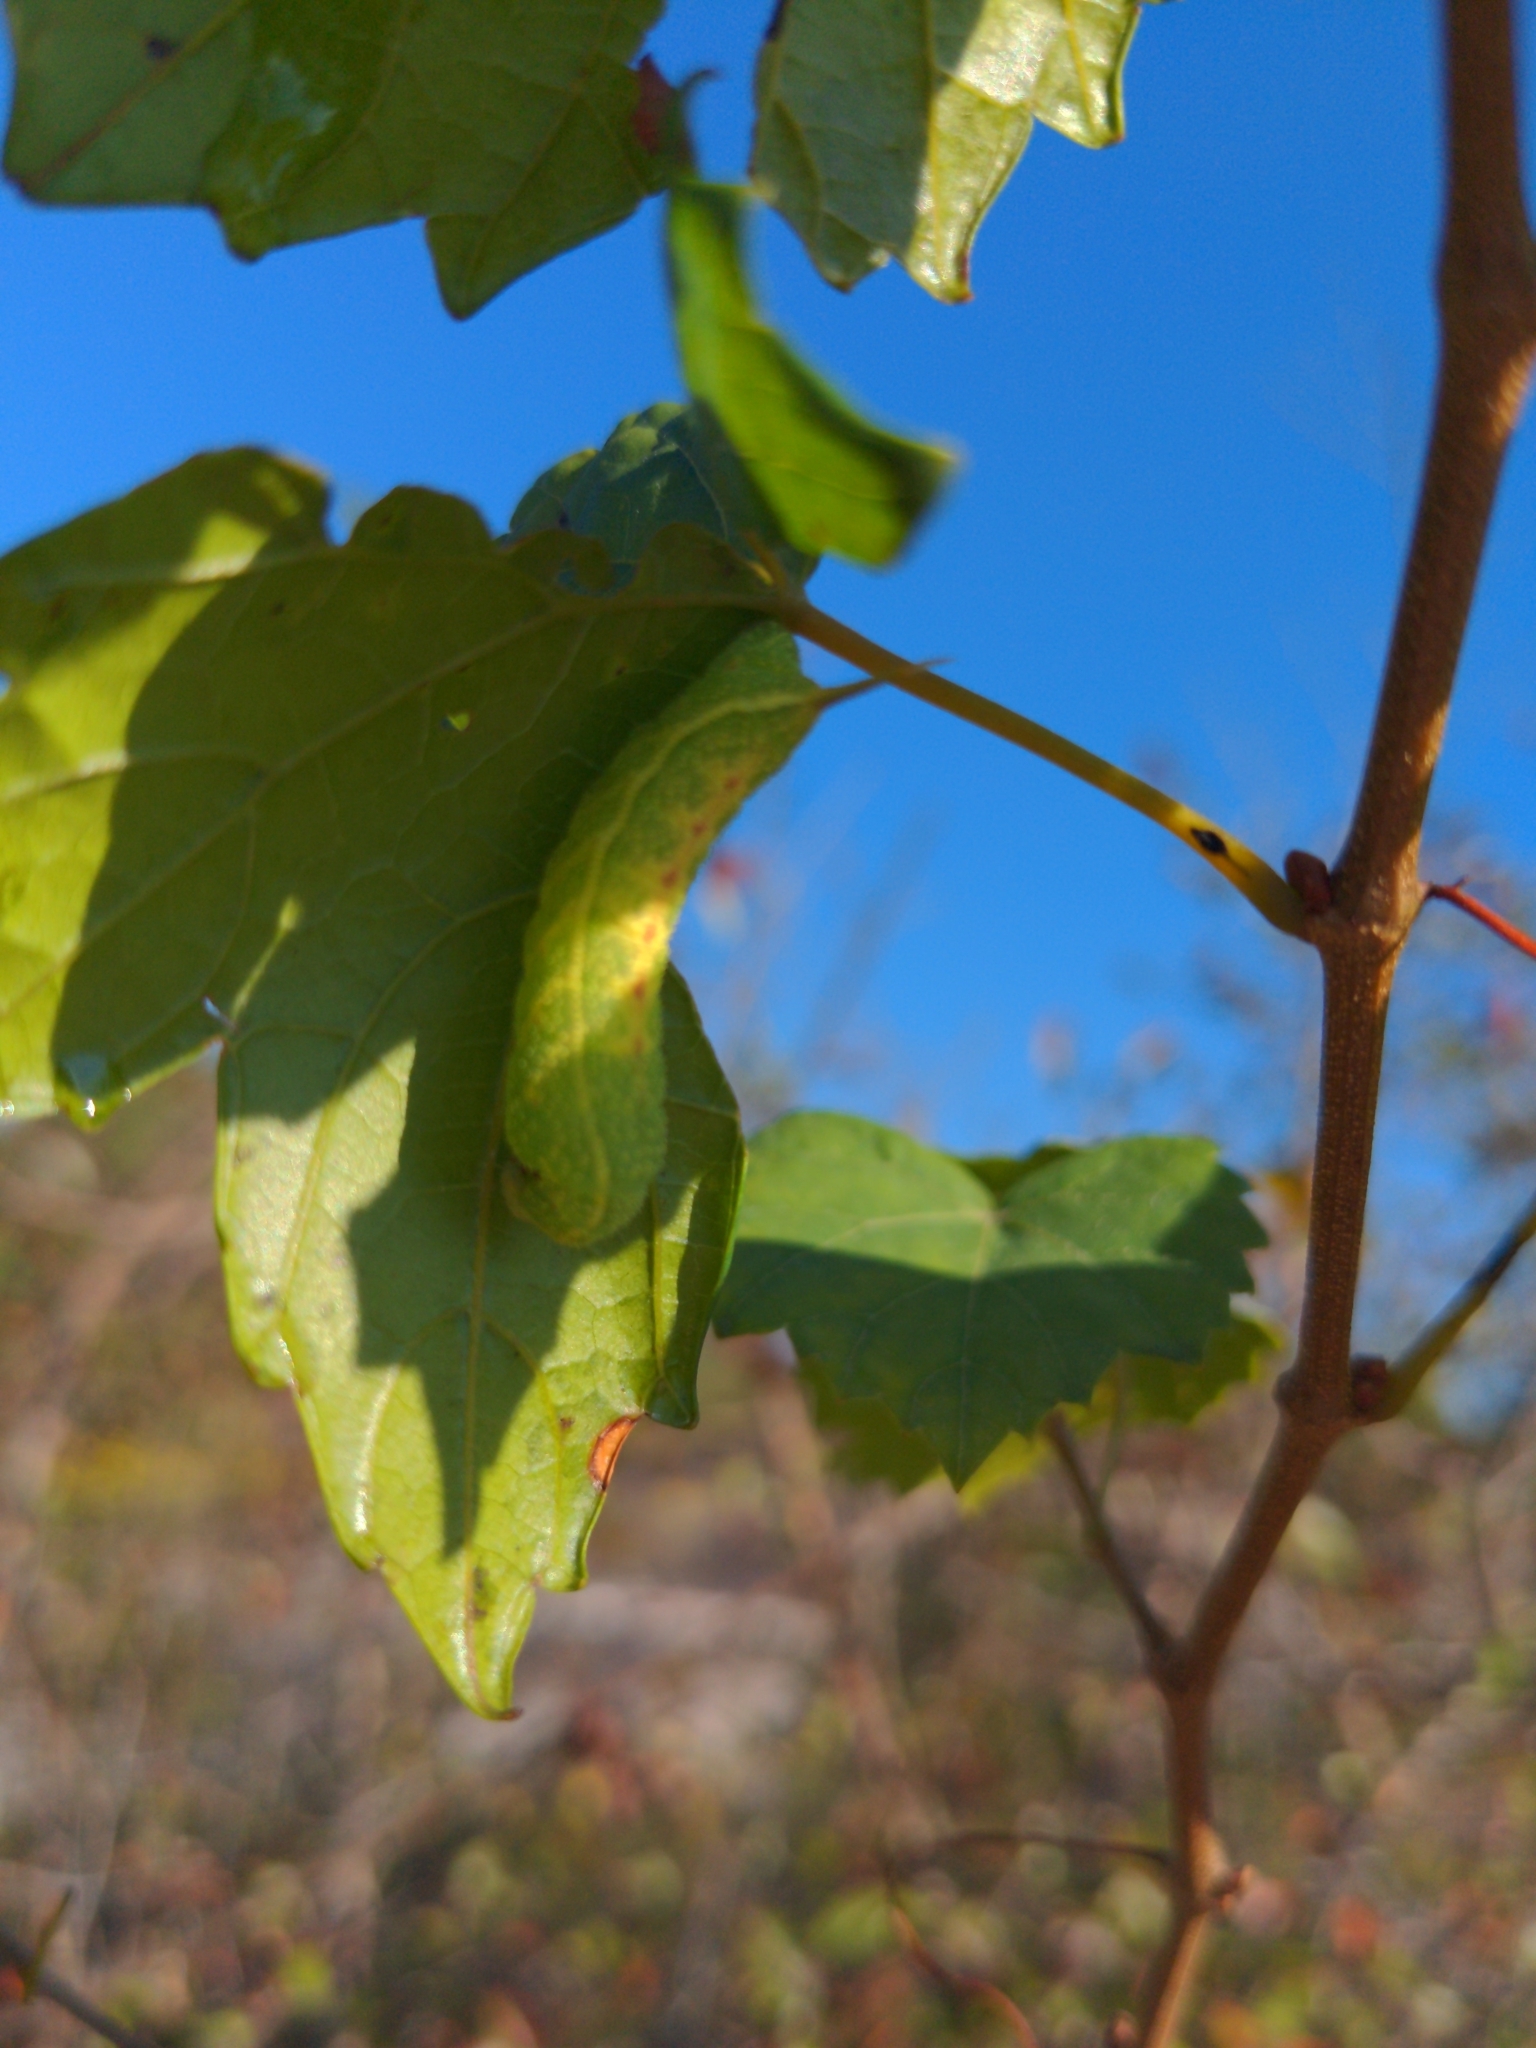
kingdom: Animalia
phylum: Arthropoda
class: Insecta
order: Lepidoptera
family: Sphingidae
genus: Darapsa
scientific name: Darapsa myron
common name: Hog sphinx
